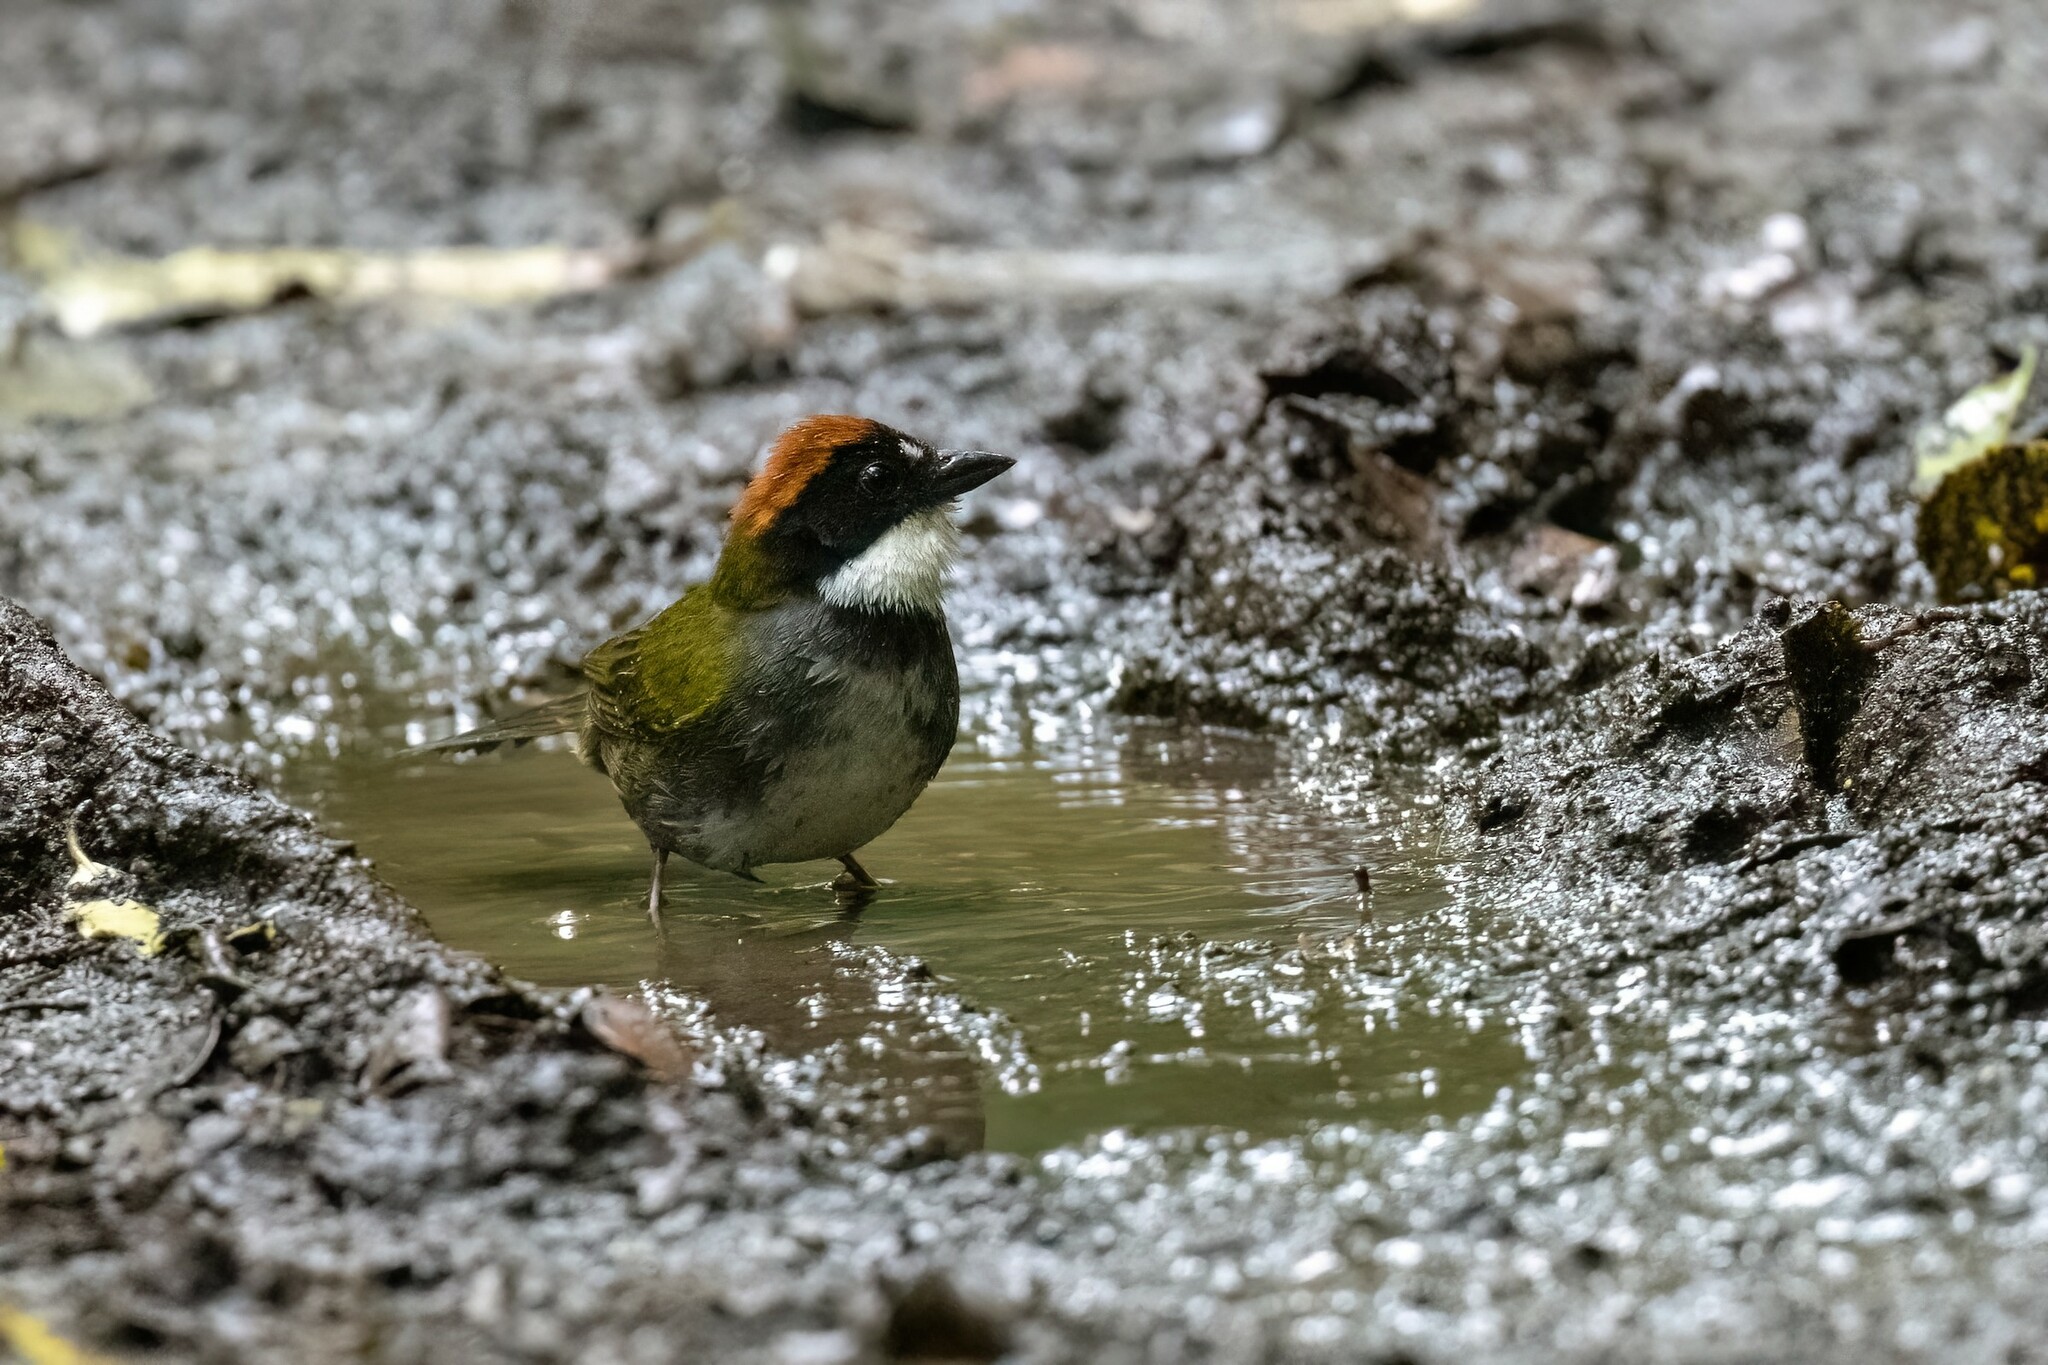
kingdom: Animalia
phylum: Chordata
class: Aves
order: Passeriformes
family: Passerellidae
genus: Arremon
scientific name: Arremon brunneinucha
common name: Chestnut-capped brushfinch
